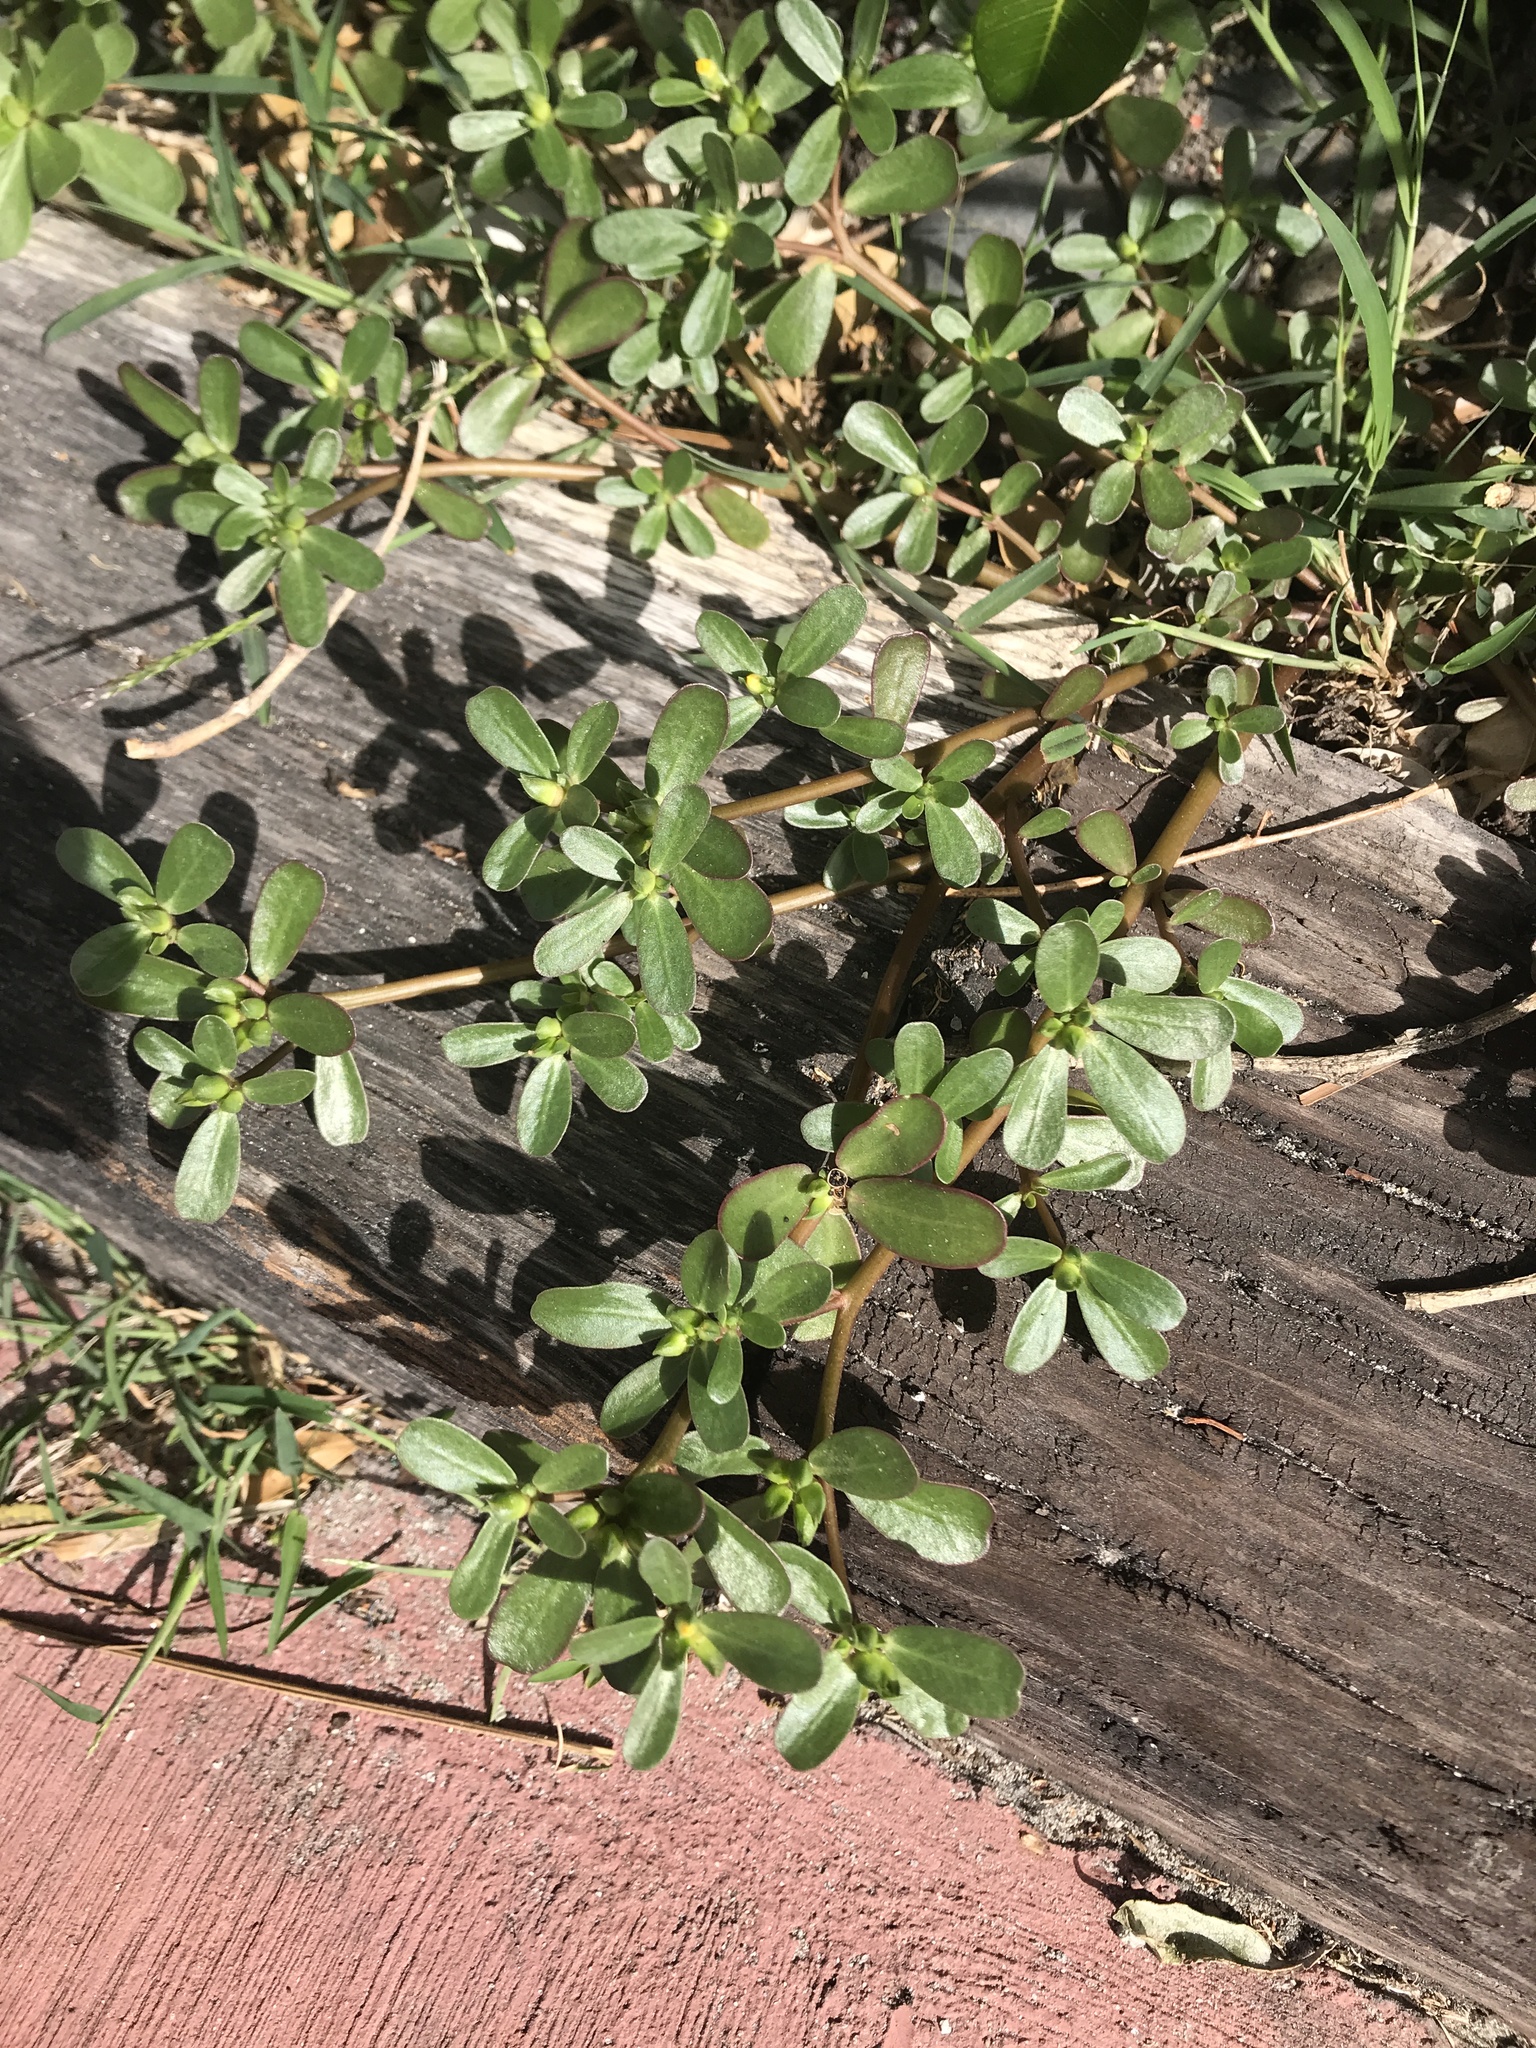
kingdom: Plantae
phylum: Tracheophyta
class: Magnoliopsida
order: Caryophyllales
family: Portulacaceae
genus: Portulaca
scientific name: Portulaca oleracea
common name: Common purslane
